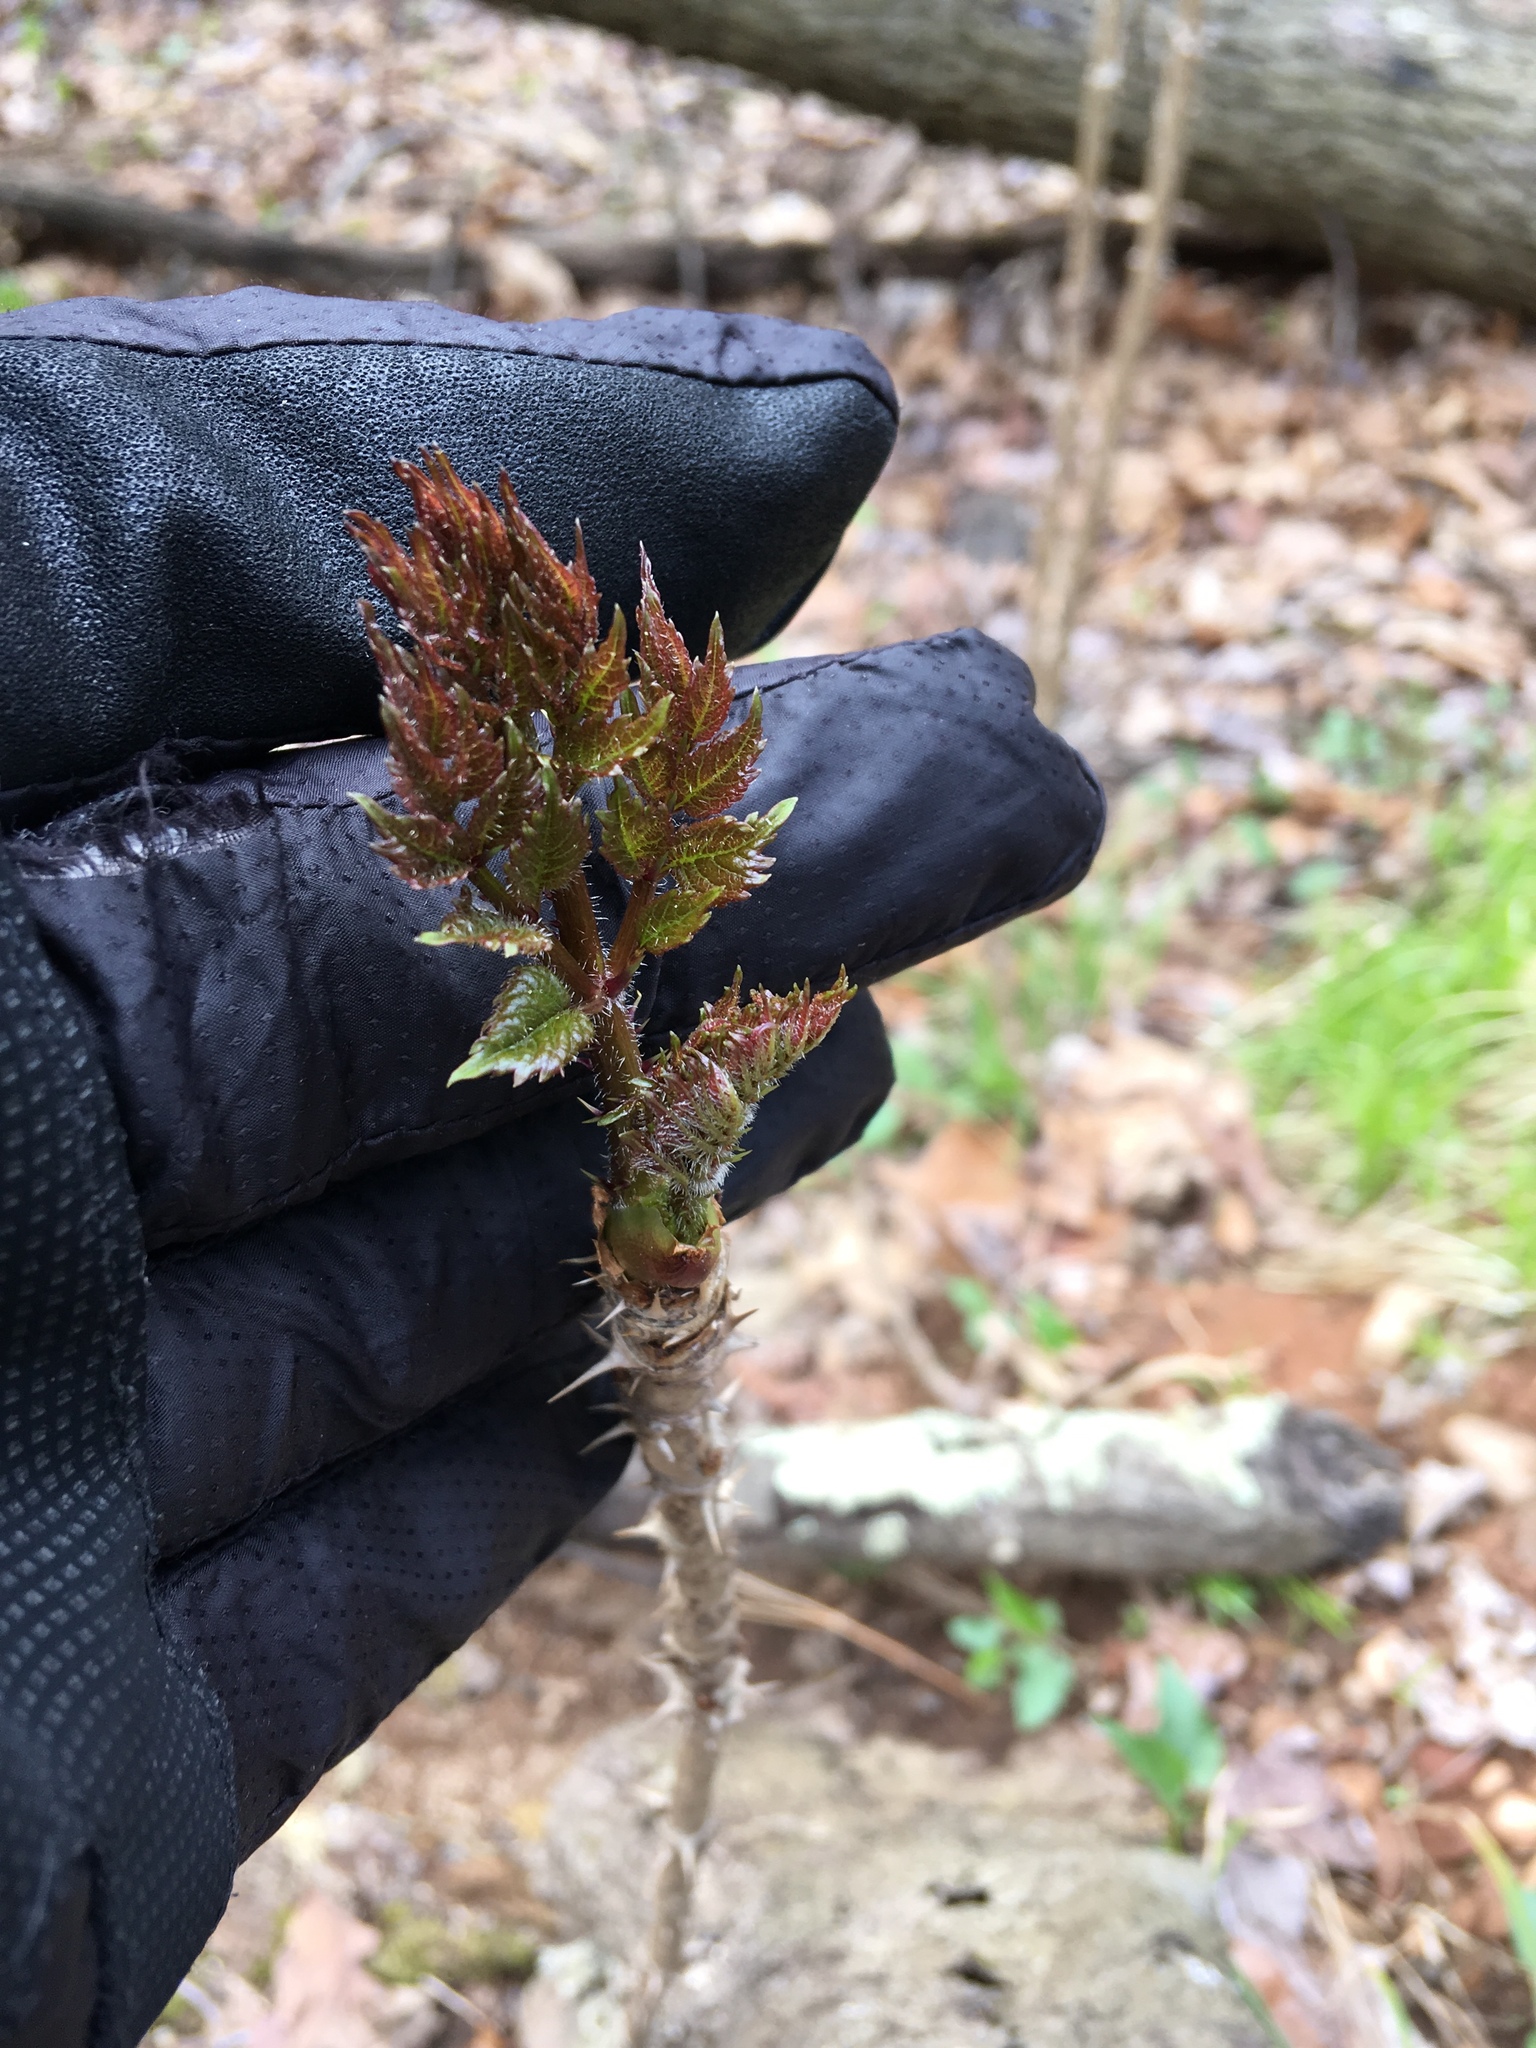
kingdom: Plantae
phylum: Tracheophyta
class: Magnoliopsida
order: Apiales
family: Araliaceae
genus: Aralia
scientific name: Aralia elata
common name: Japanese angelica-tree
